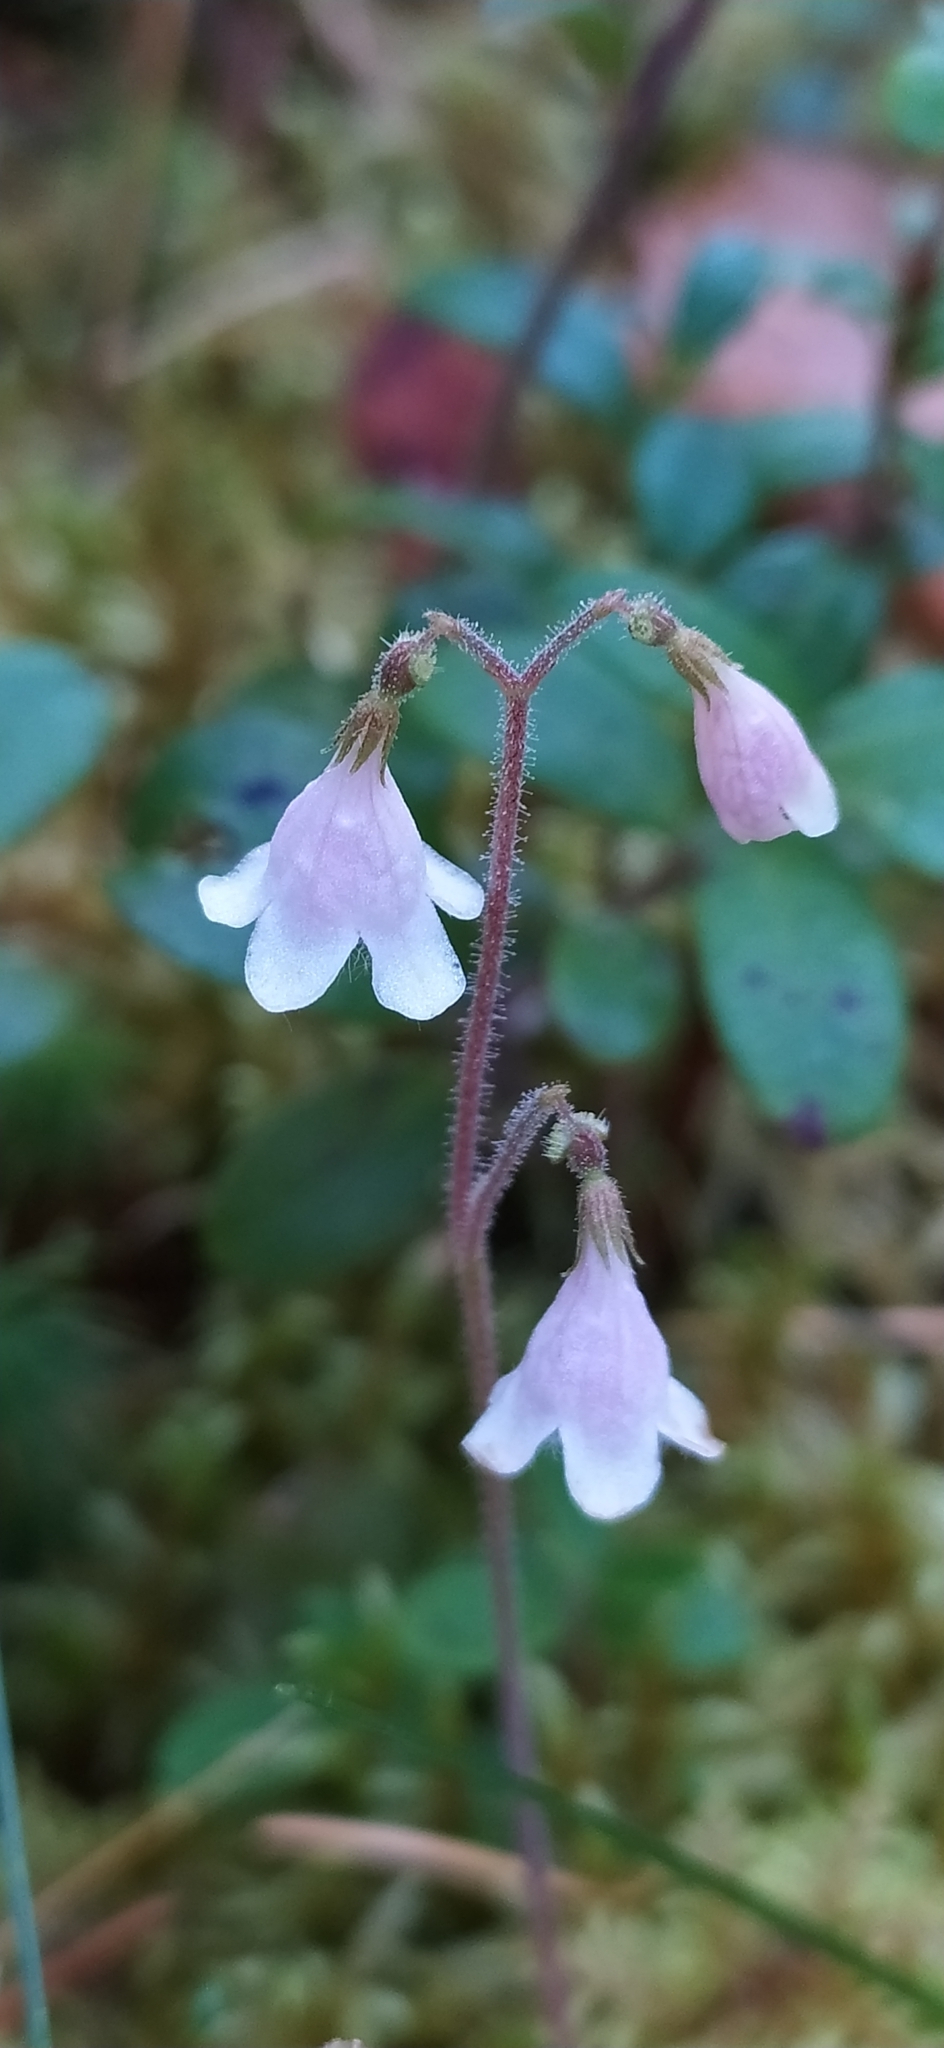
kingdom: Plantae
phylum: Tracheophyta
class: Magnoliopsida
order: Dipsacales
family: Caprifoliaceae
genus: Linnaea
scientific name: Linnaea borealis
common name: Twinflower
